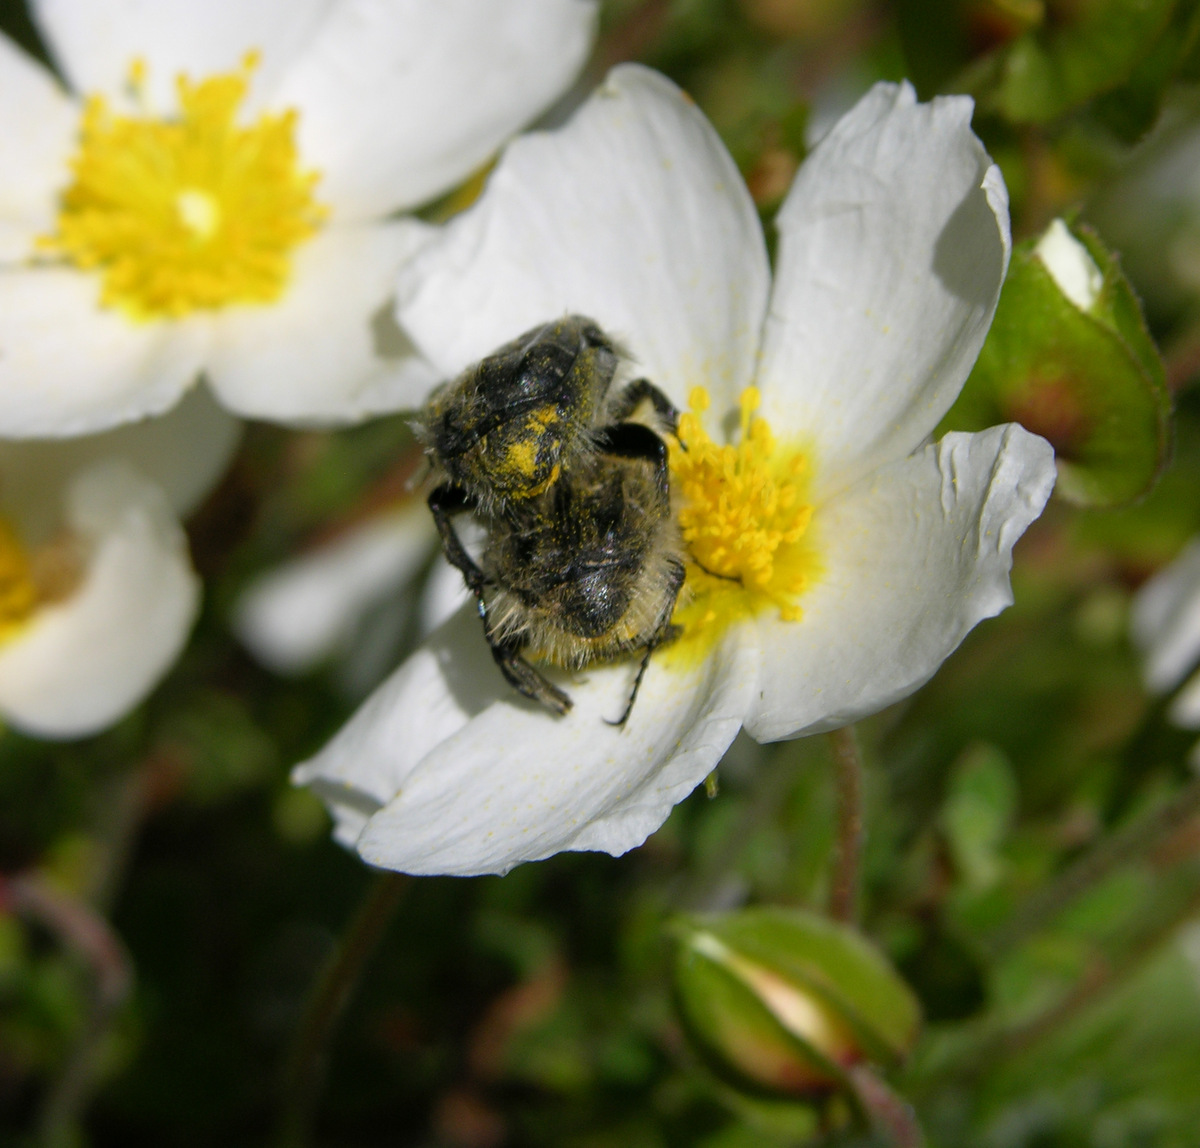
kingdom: Animalia
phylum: Arthropoda
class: Insecta
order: Coleoptera
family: Scarabaeidae
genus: Tropinota
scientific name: Tropinota squalida
